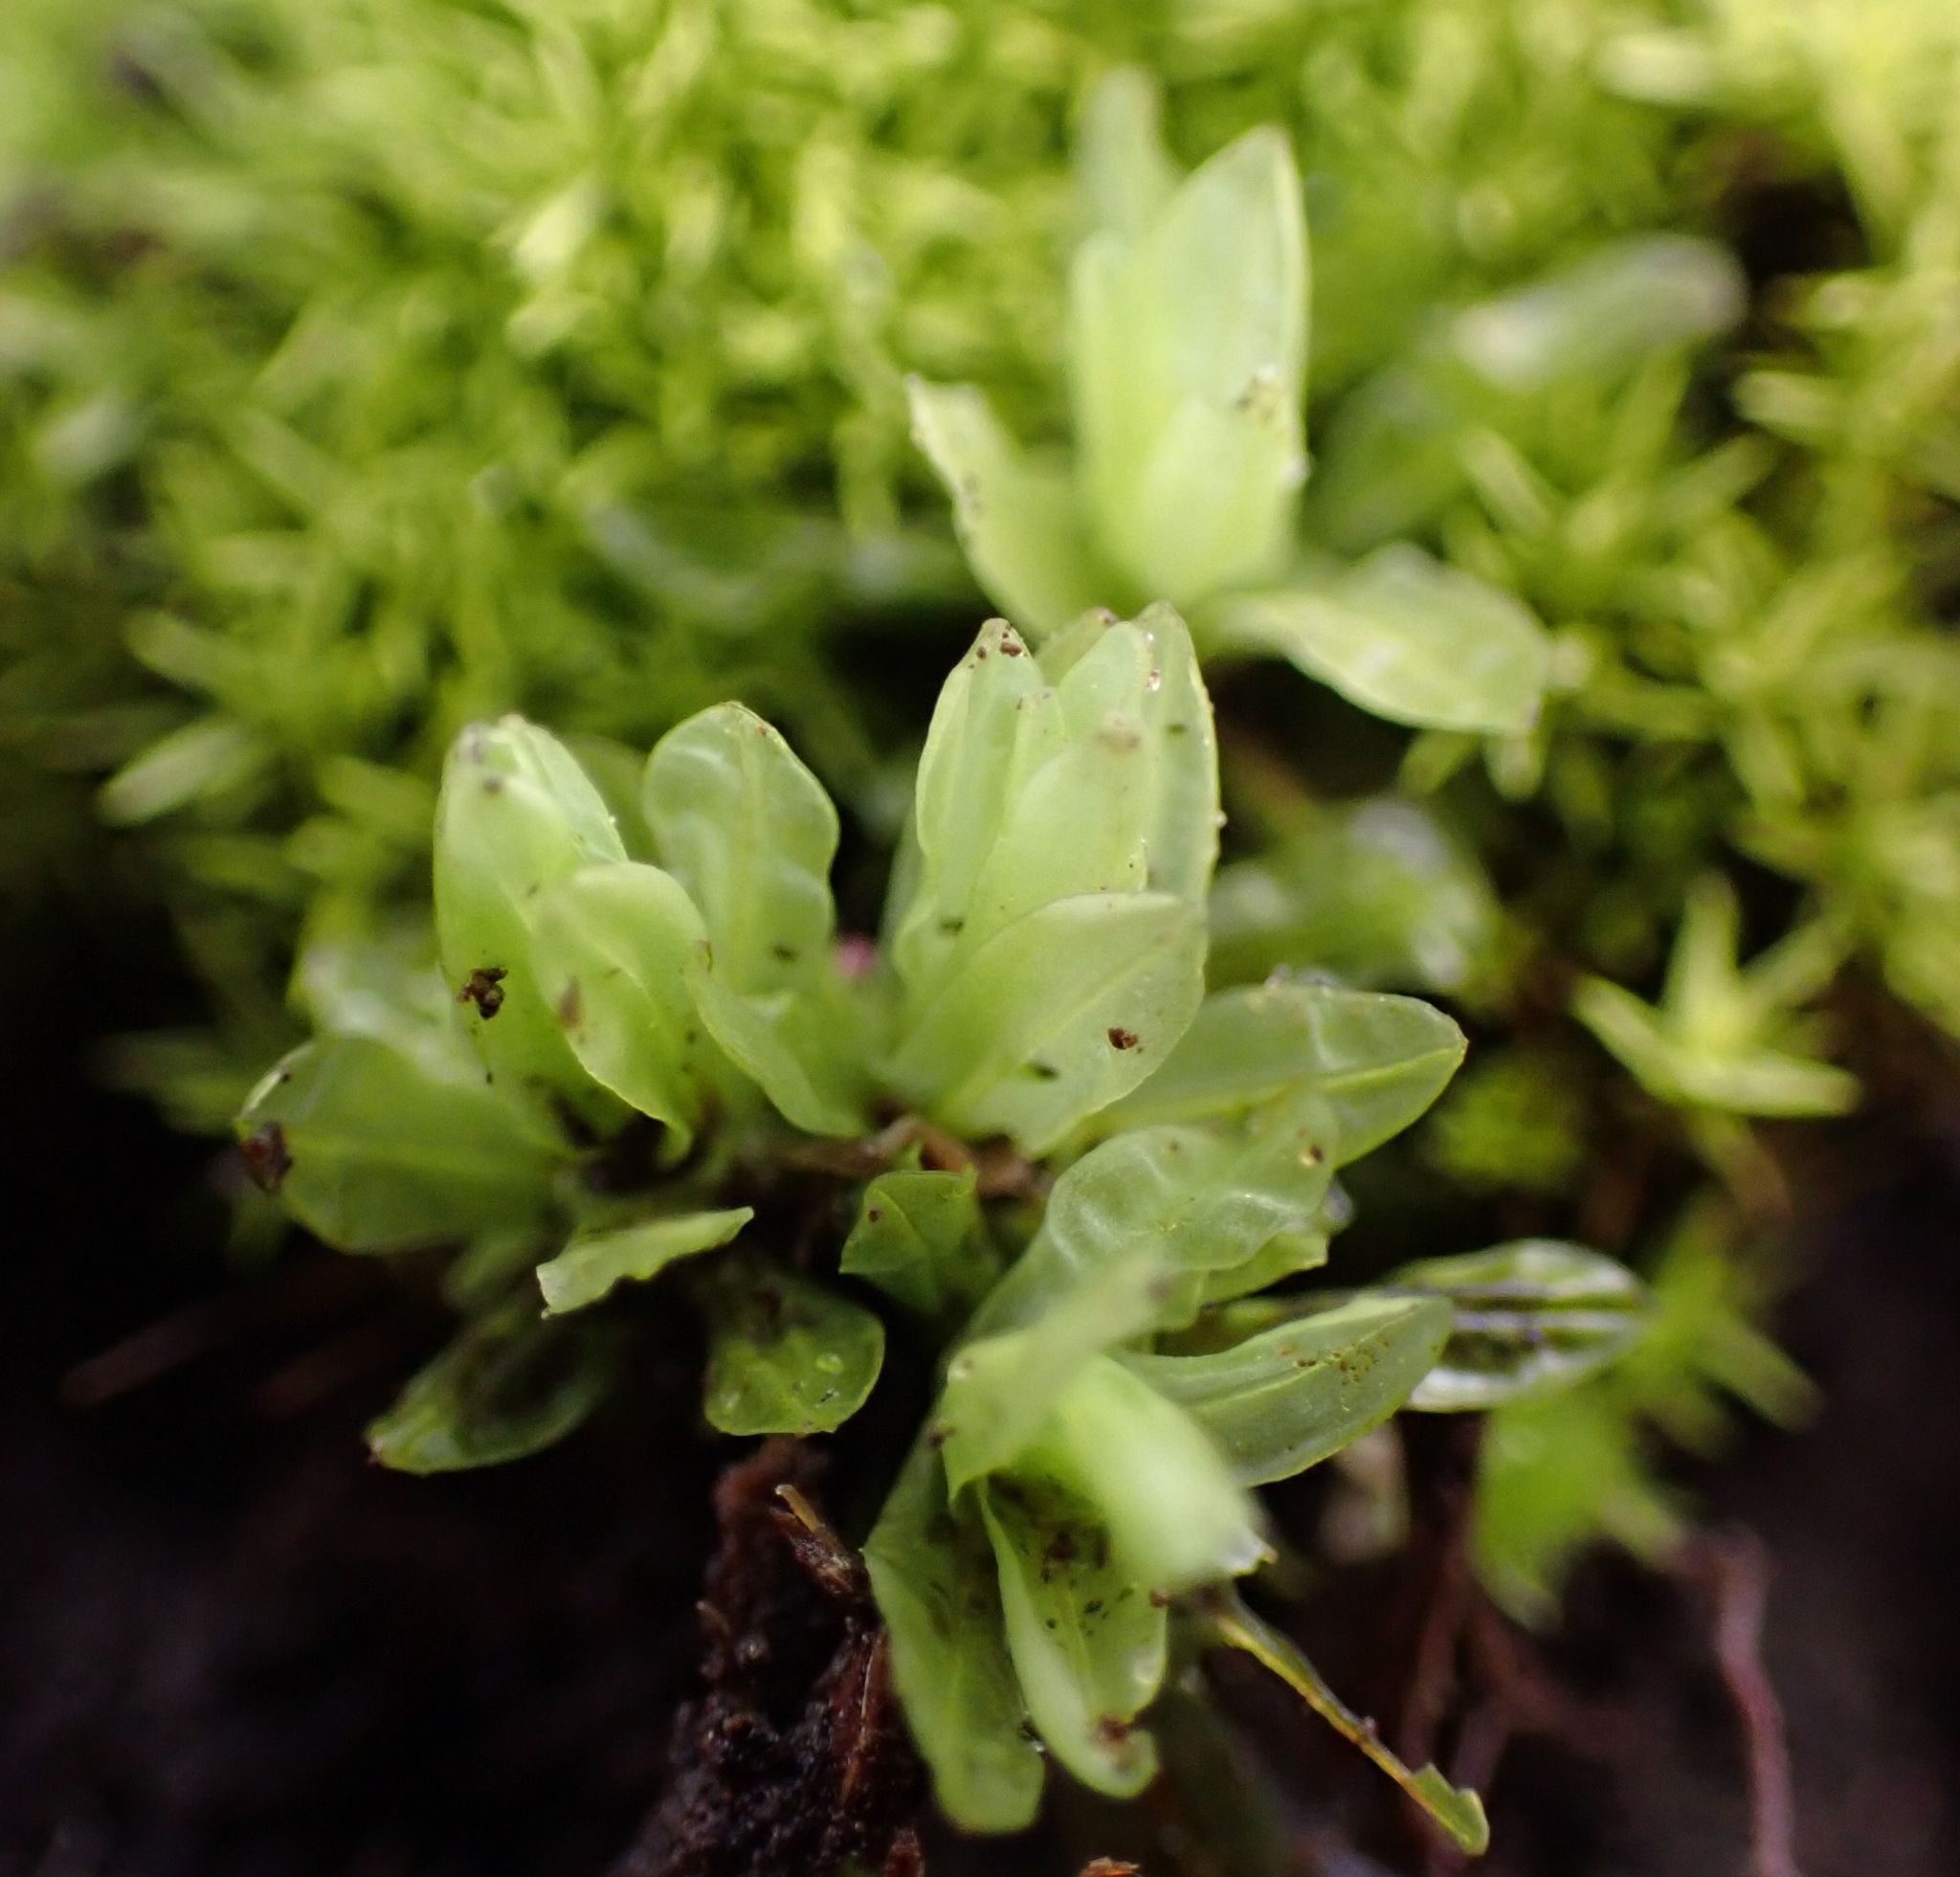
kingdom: Plantae
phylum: Bryophyta
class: Bryopsida
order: Encalyptales
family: Encalyptaceae
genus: Encalypta
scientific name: Encalypta streptocarpa
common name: Spiral extinguisher-moss
